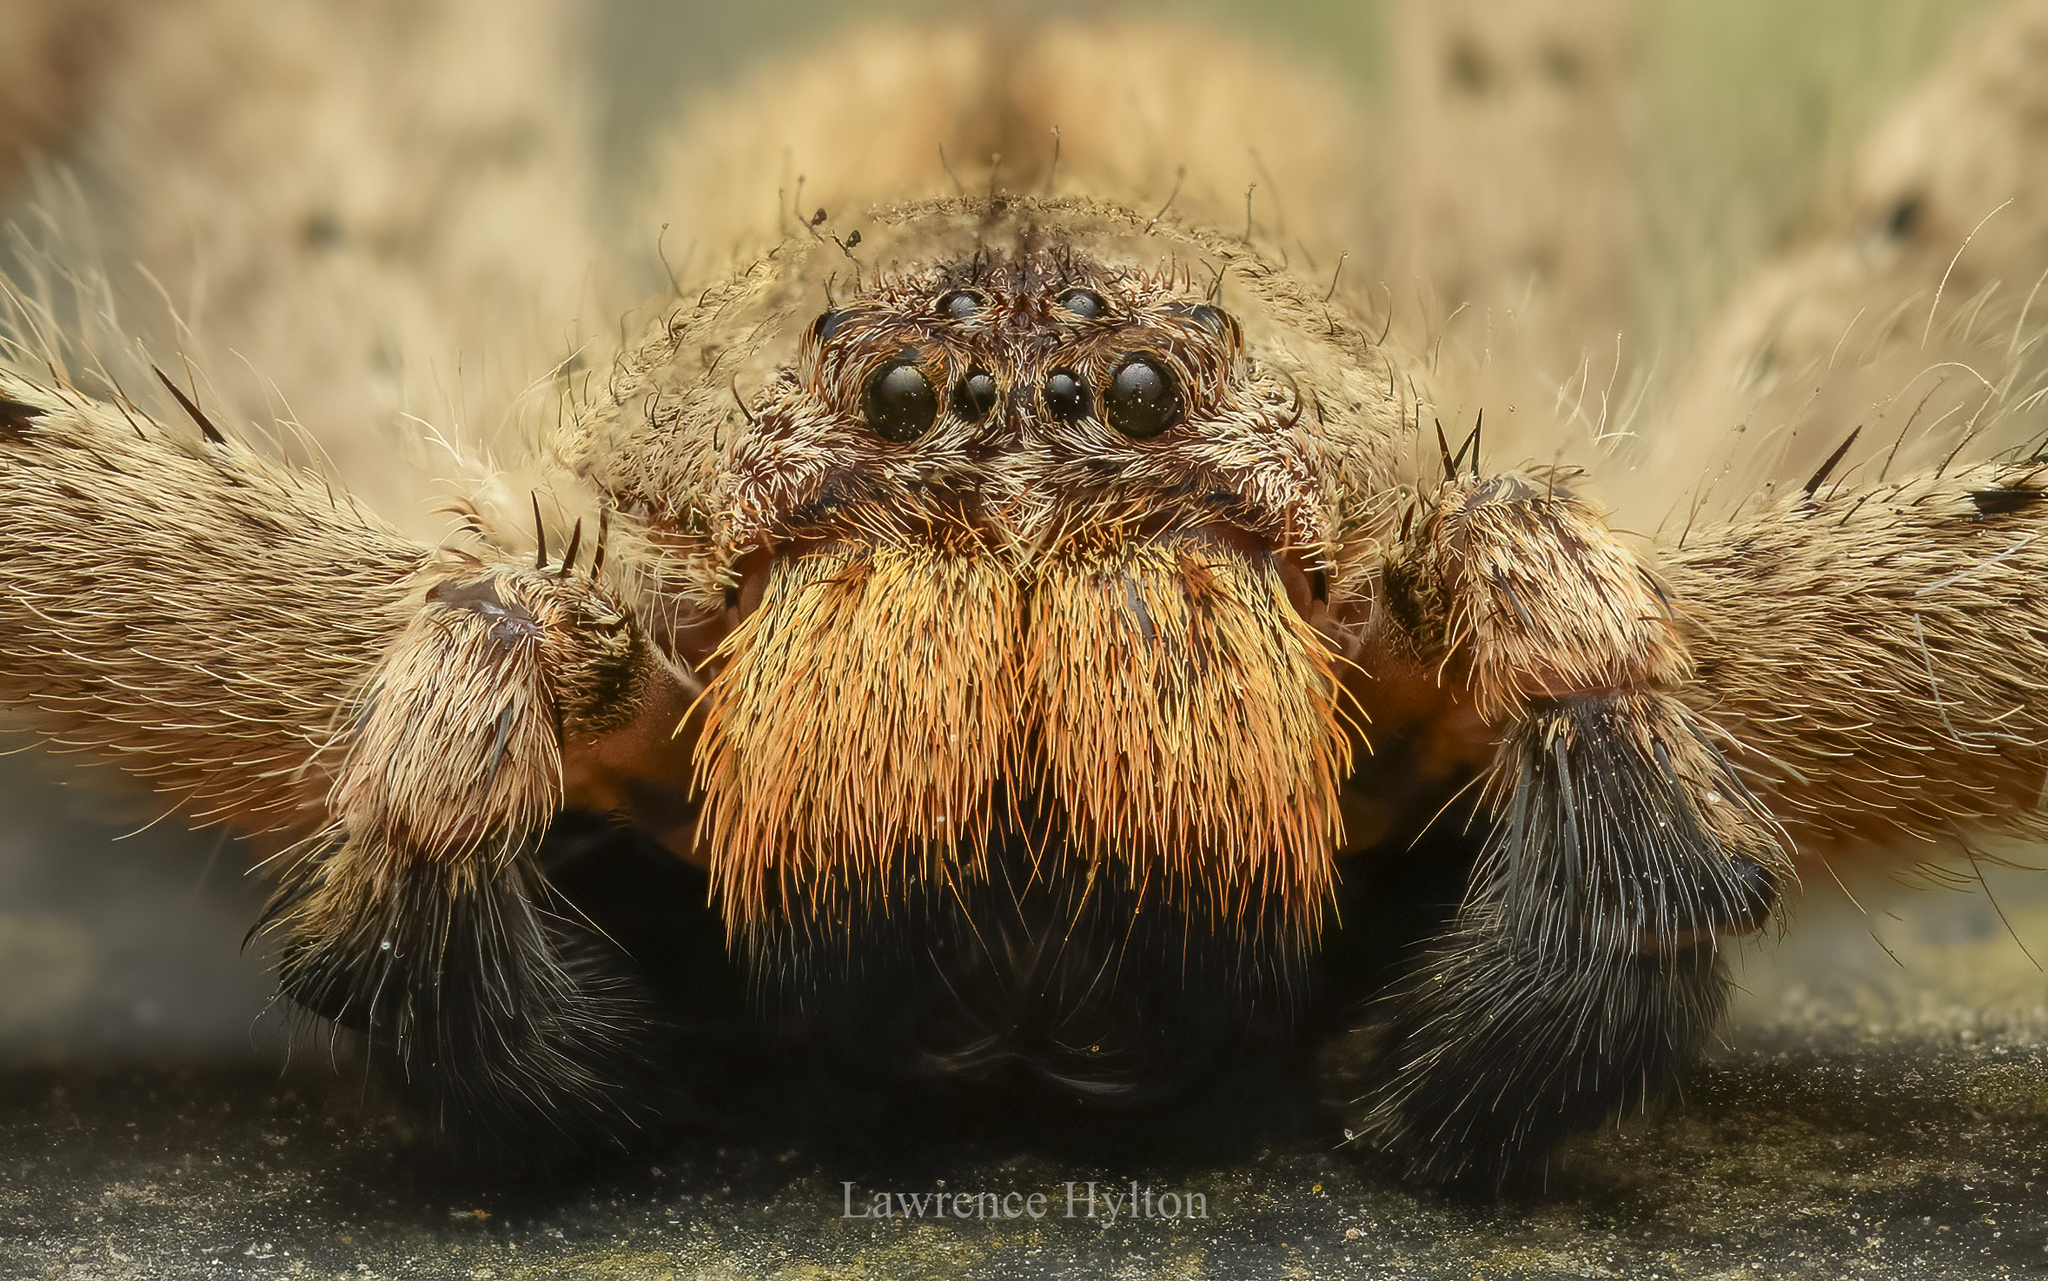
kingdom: Animalia
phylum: Arthropoda
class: Arachnida
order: Araneae
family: Sparassidae
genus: Heteropoda
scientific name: Heteropoda pingtungensis
